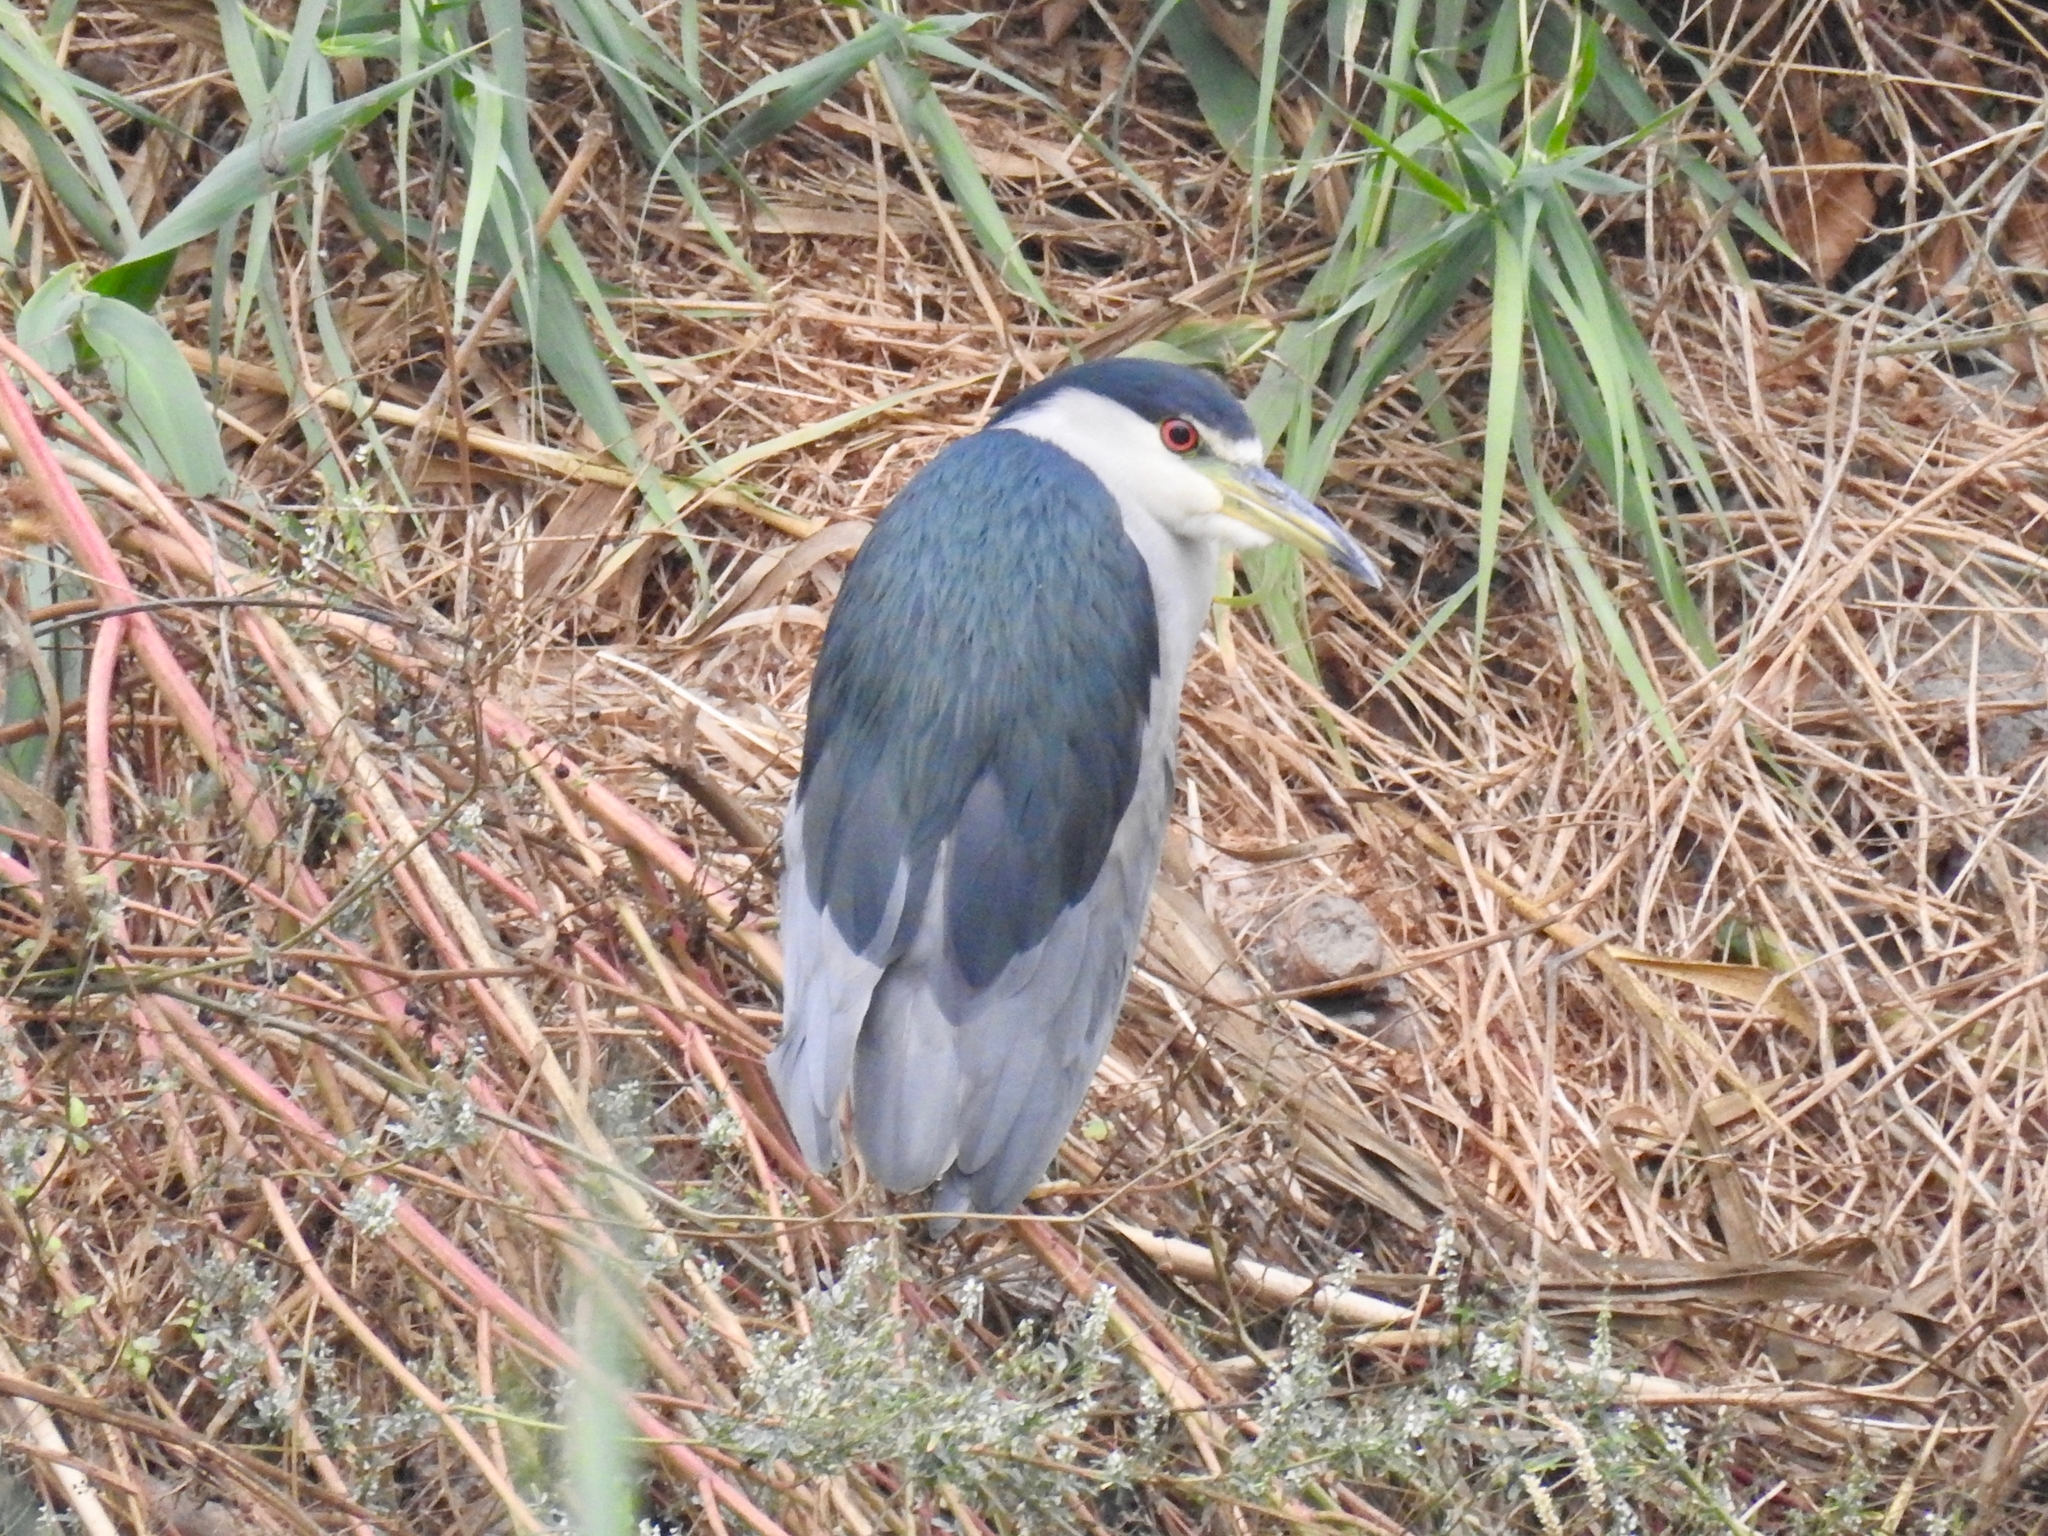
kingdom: Animalia
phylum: Chordata
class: Aves
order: Pelecaniformes
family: Ardeidae
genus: Nycticorax
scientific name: Nycticorax nycticorax
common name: Black-crowned night heron
